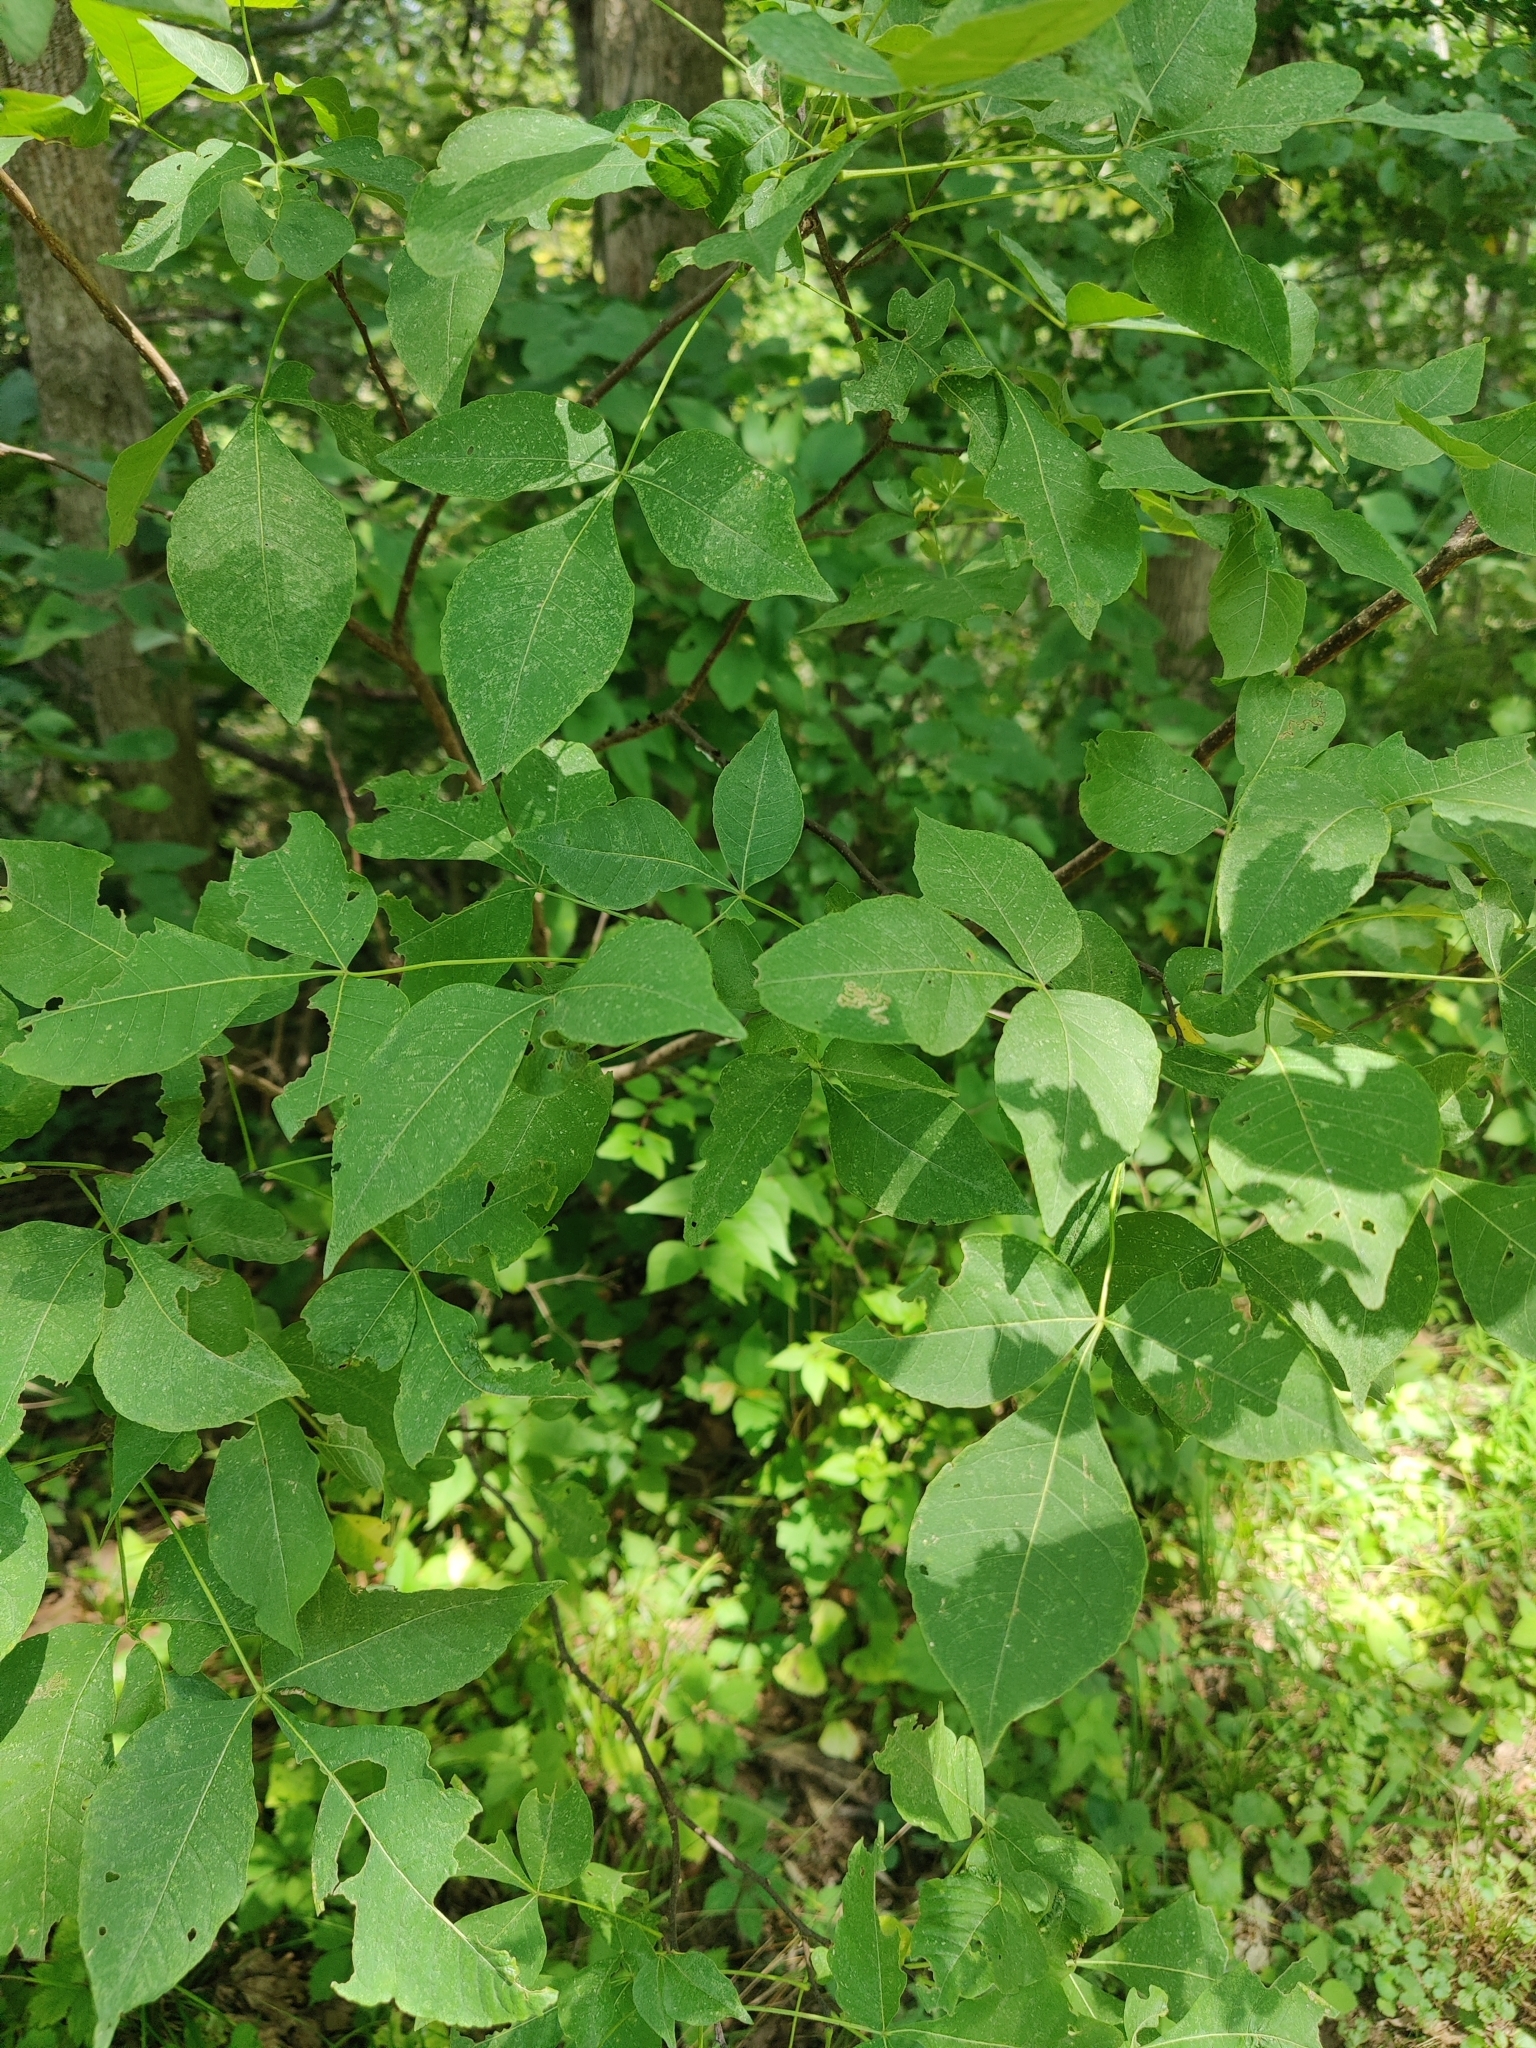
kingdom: Plantae
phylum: Tracheophyta
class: Magnoliopsida
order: Sapindales
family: Rutaceae
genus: Ptelea
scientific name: Ptelea trifoliata
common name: Common hop-tree
